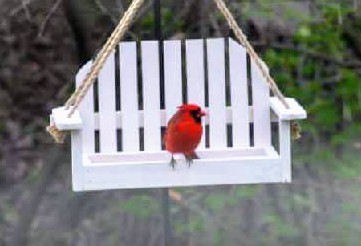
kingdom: Animalia
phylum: Chordata
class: Aves
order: Passeriformes
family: Cardinalidae
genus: Cardinalis
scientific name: Cardinalis cardinalis
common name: Northern cardinal
